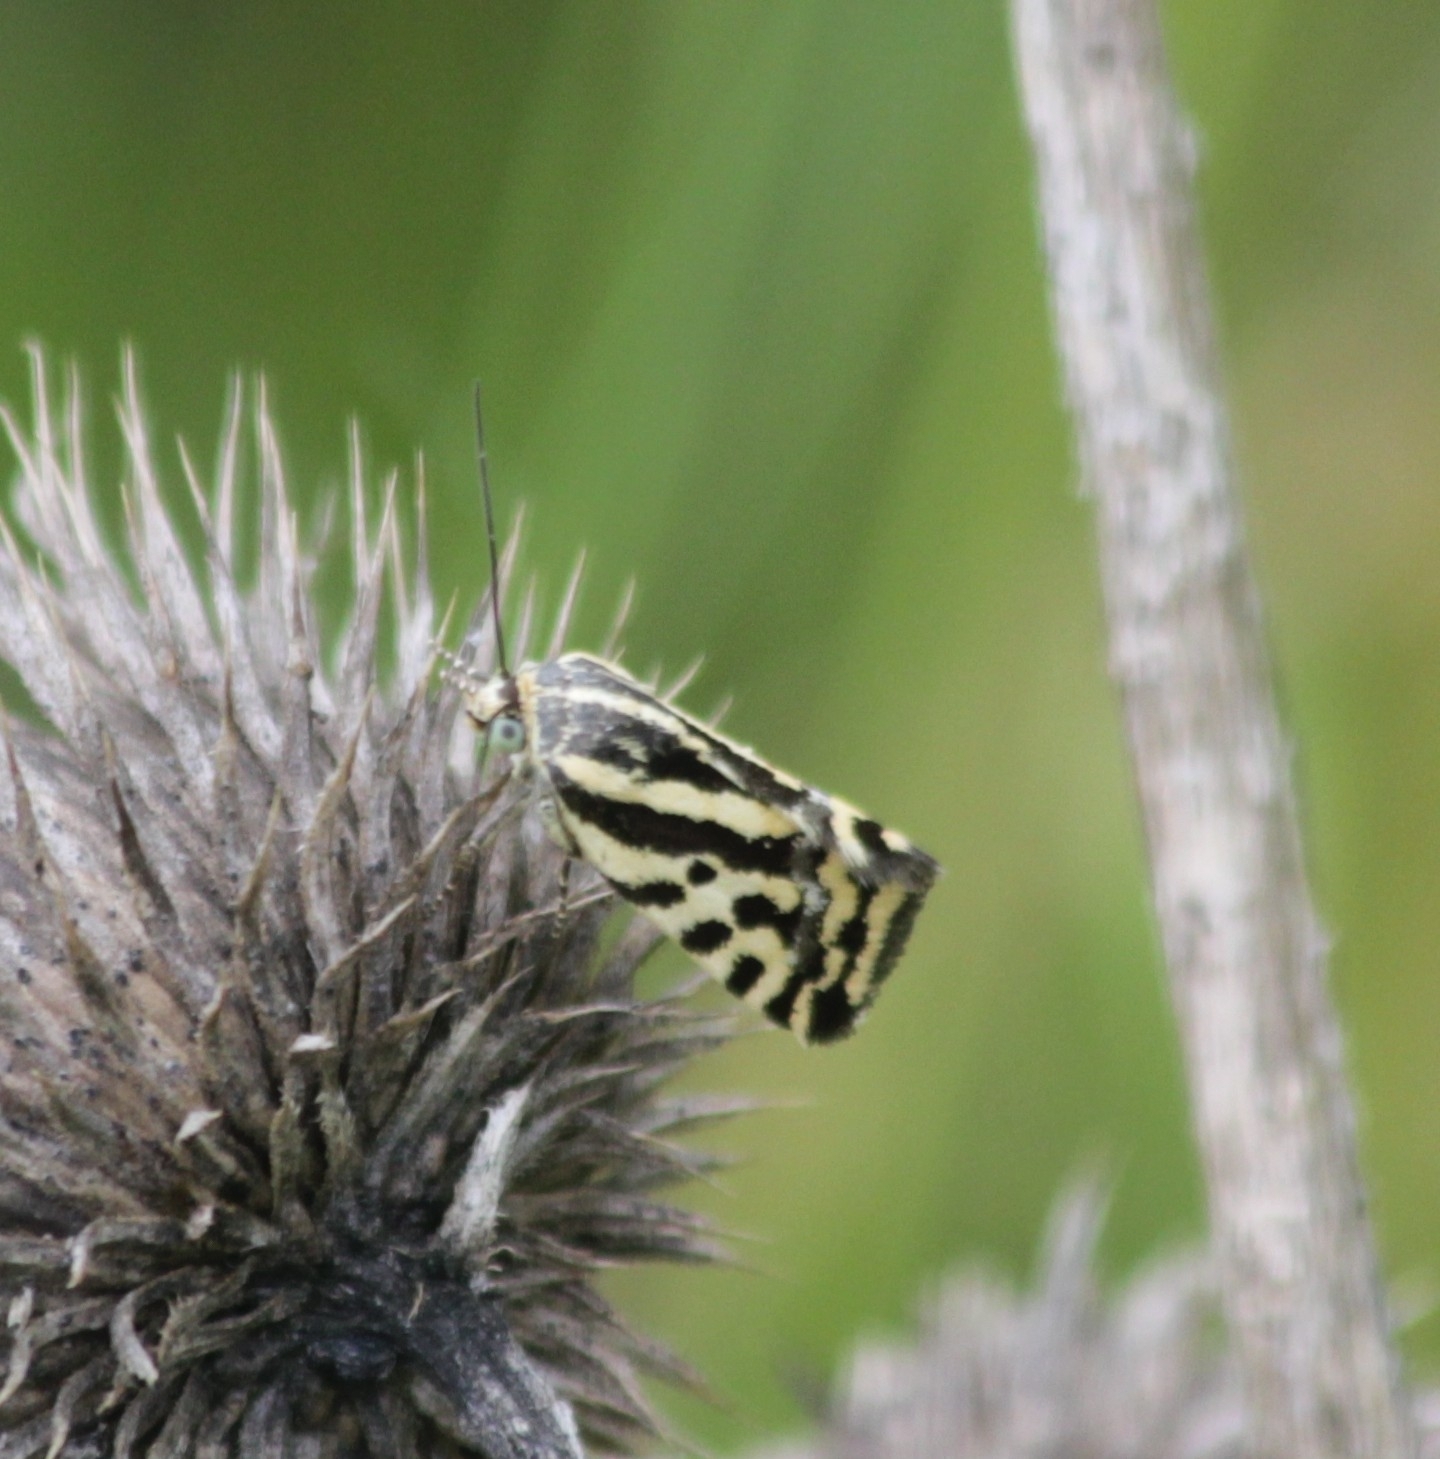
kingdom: Animalia
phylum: Arthropoda
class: Insecta
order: Lepidoptera
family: Noctuidae
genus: Acontia
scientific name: Acontia trabealis
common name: Spotted sulphur
